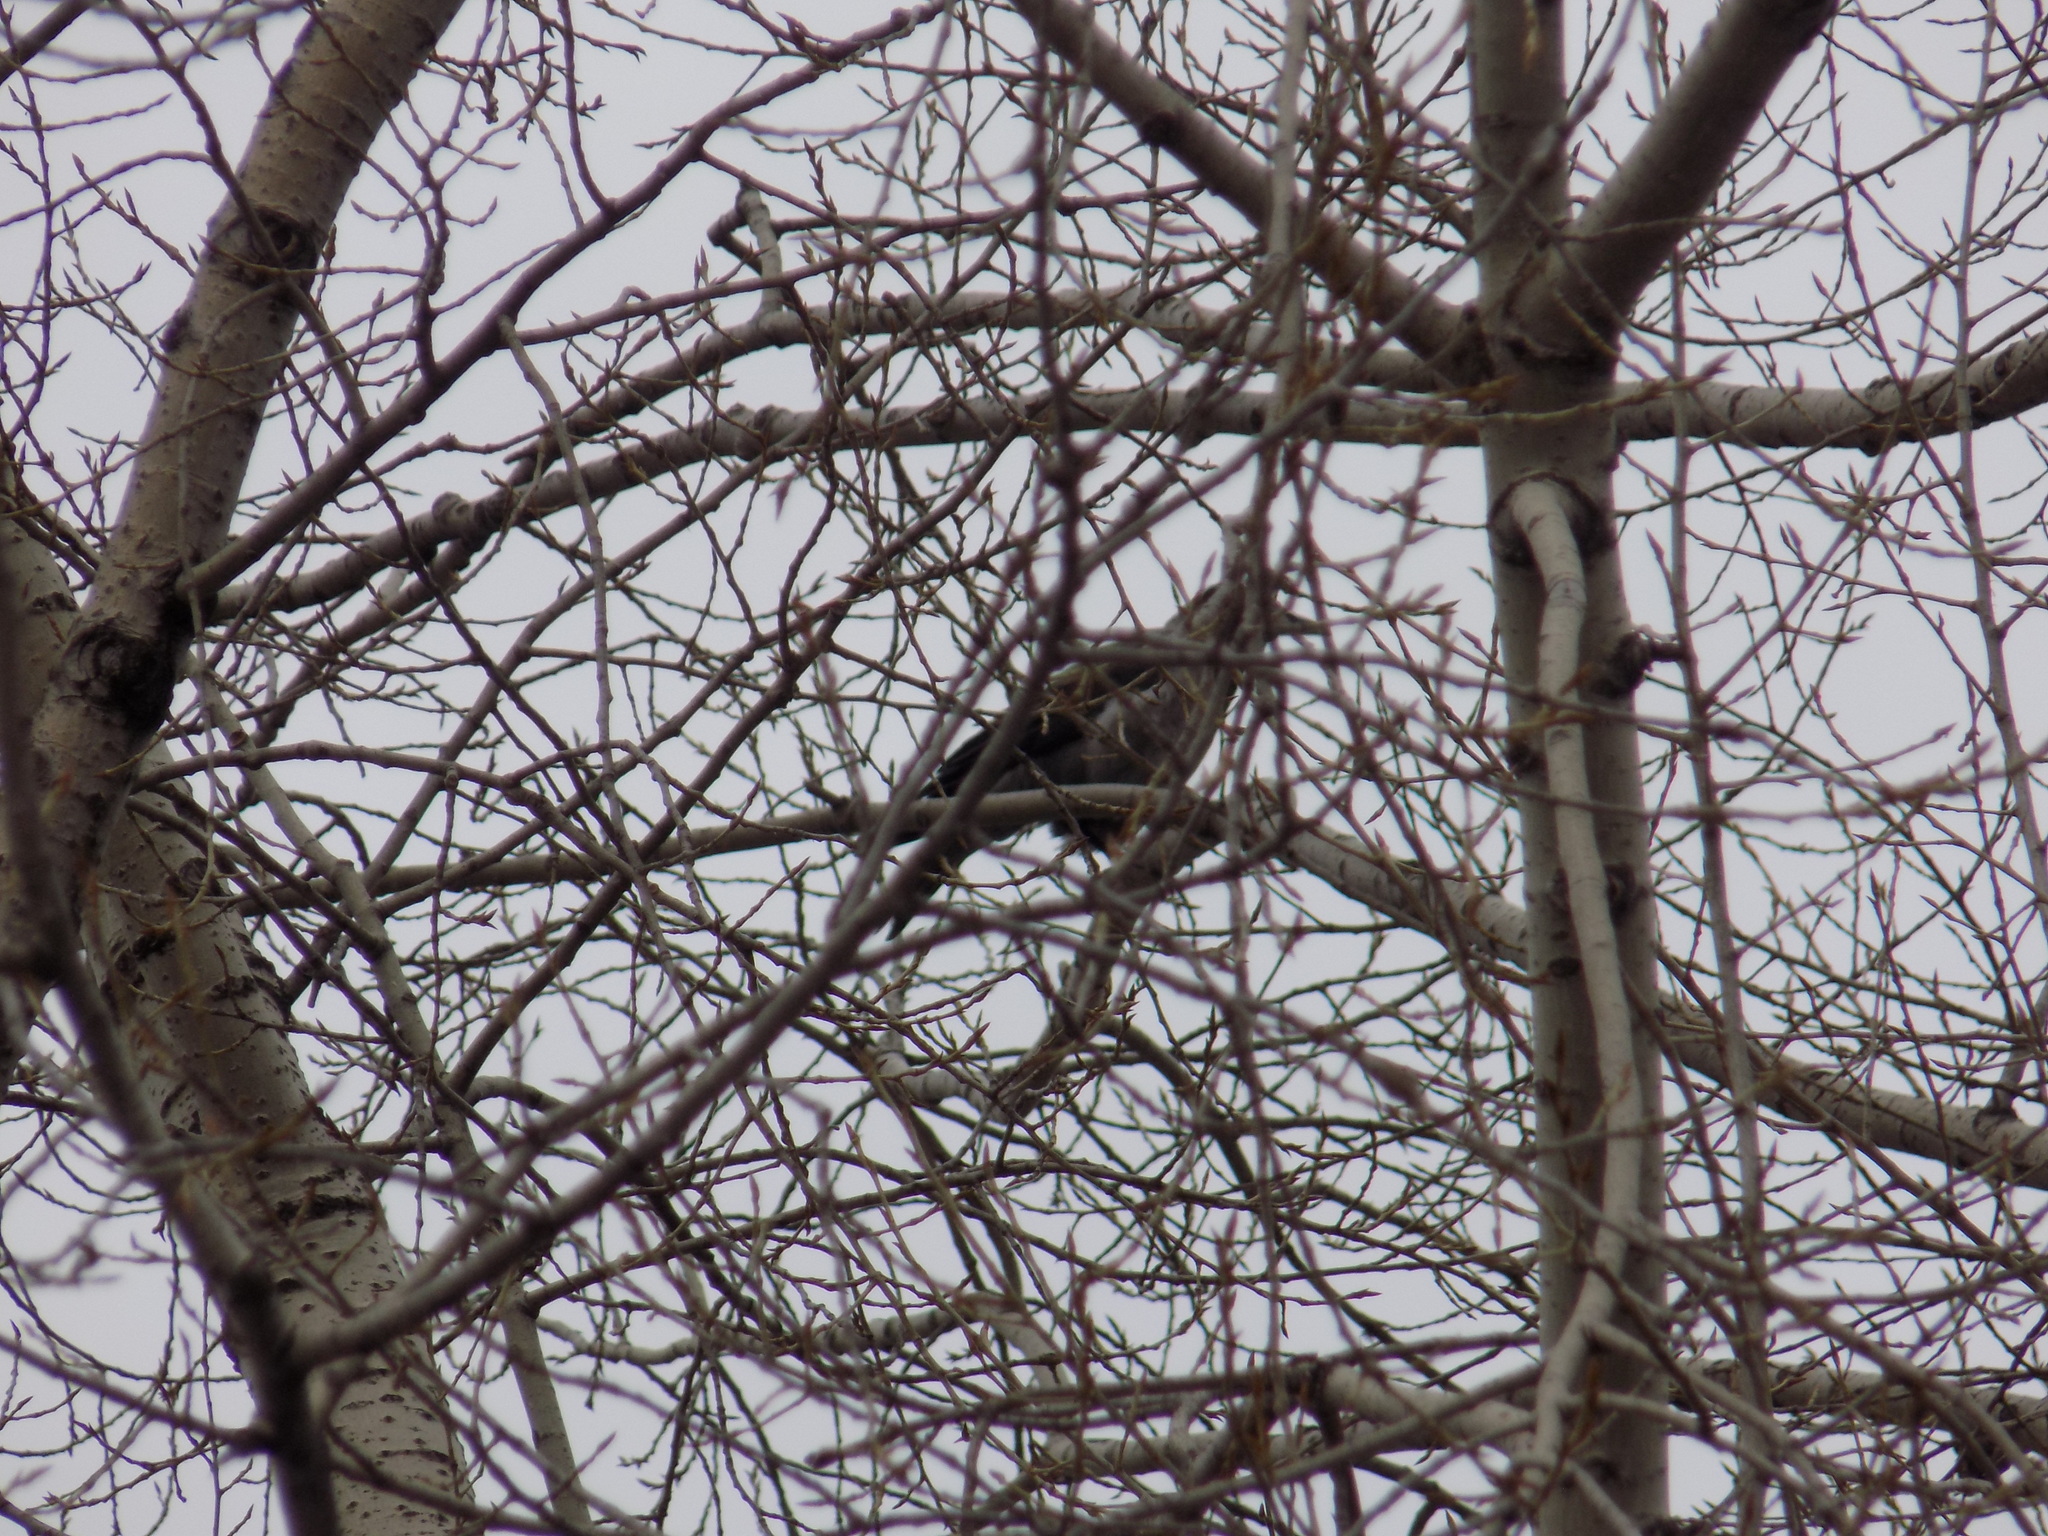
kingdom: Animalia
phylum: Chordata
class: Aves
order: Passeriformes
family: Corvidae
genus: Corvus
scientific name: Corvus cornix
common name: Hooded crow
